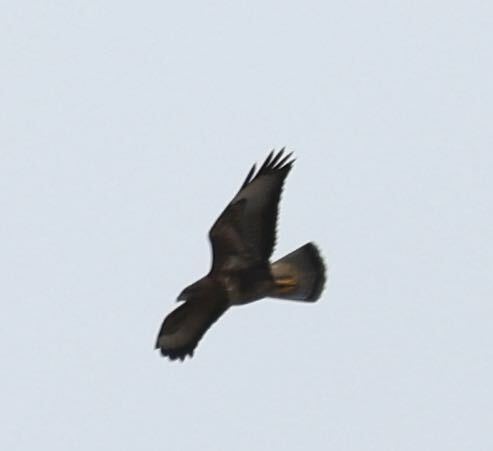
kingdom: Animalia
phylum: Chordata
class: Aves
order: Accipitriformes
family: Accipitridae
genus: Buteo
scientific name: Buteo buteo
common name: Common buzzard
